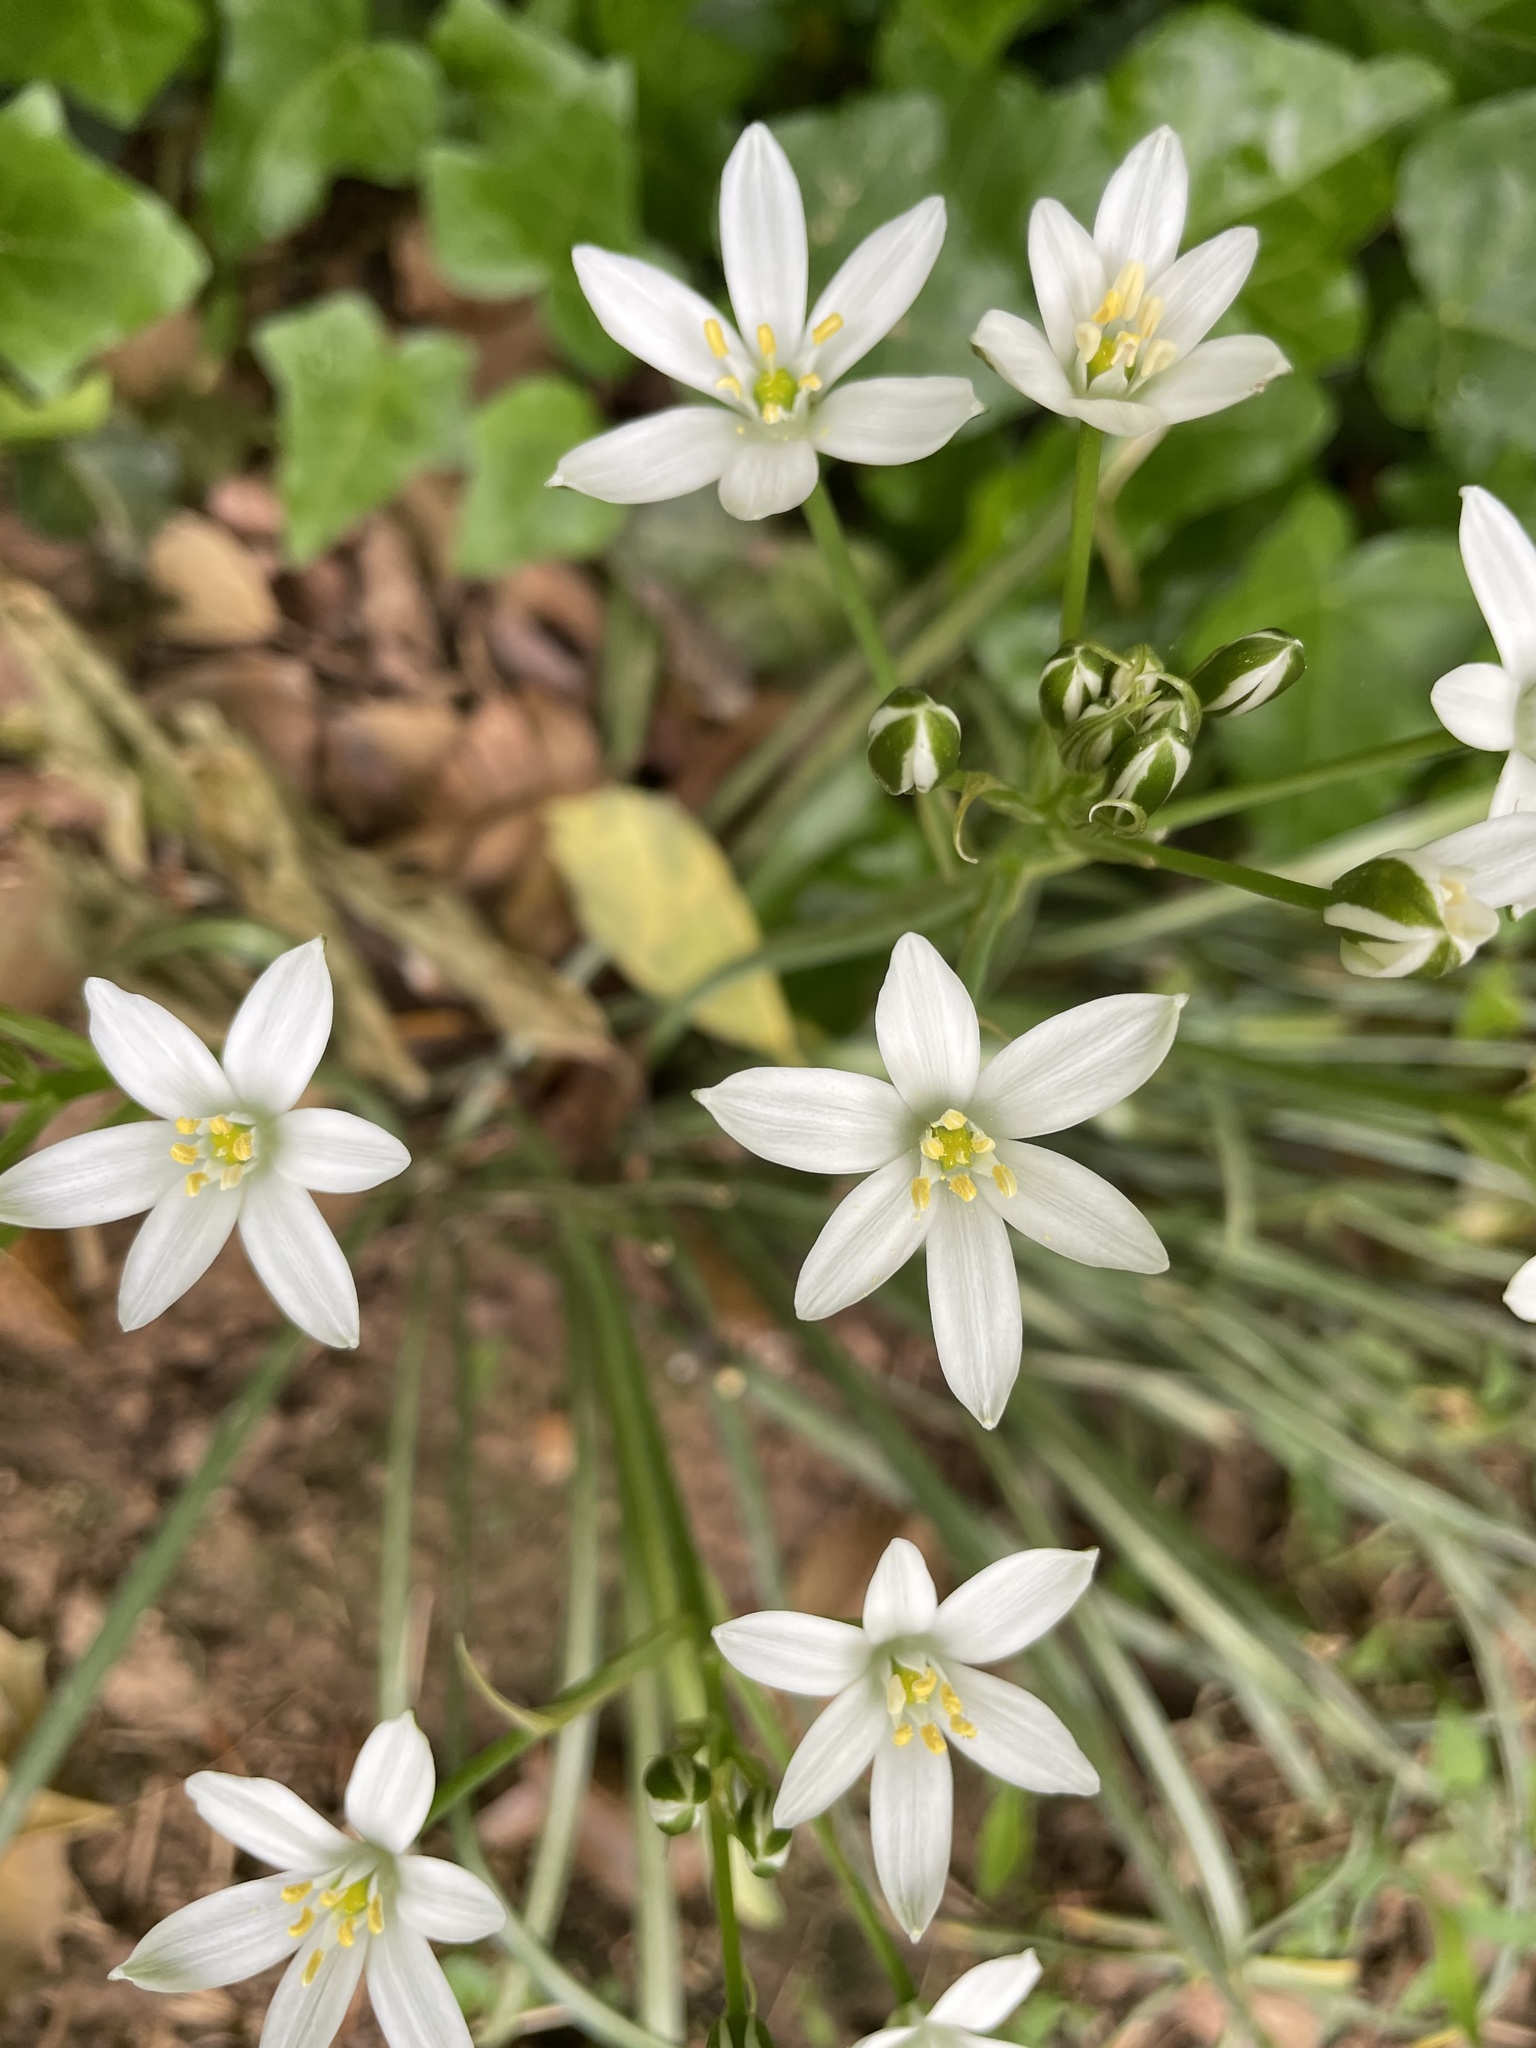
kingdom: Plantae
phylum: Tracheophyta
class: Liliopsida
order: Asparagales
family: Asparagaceae
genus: Ornithogalum
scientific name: Ornithogalum umbellatum
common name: Garden star-of-bethlehem
